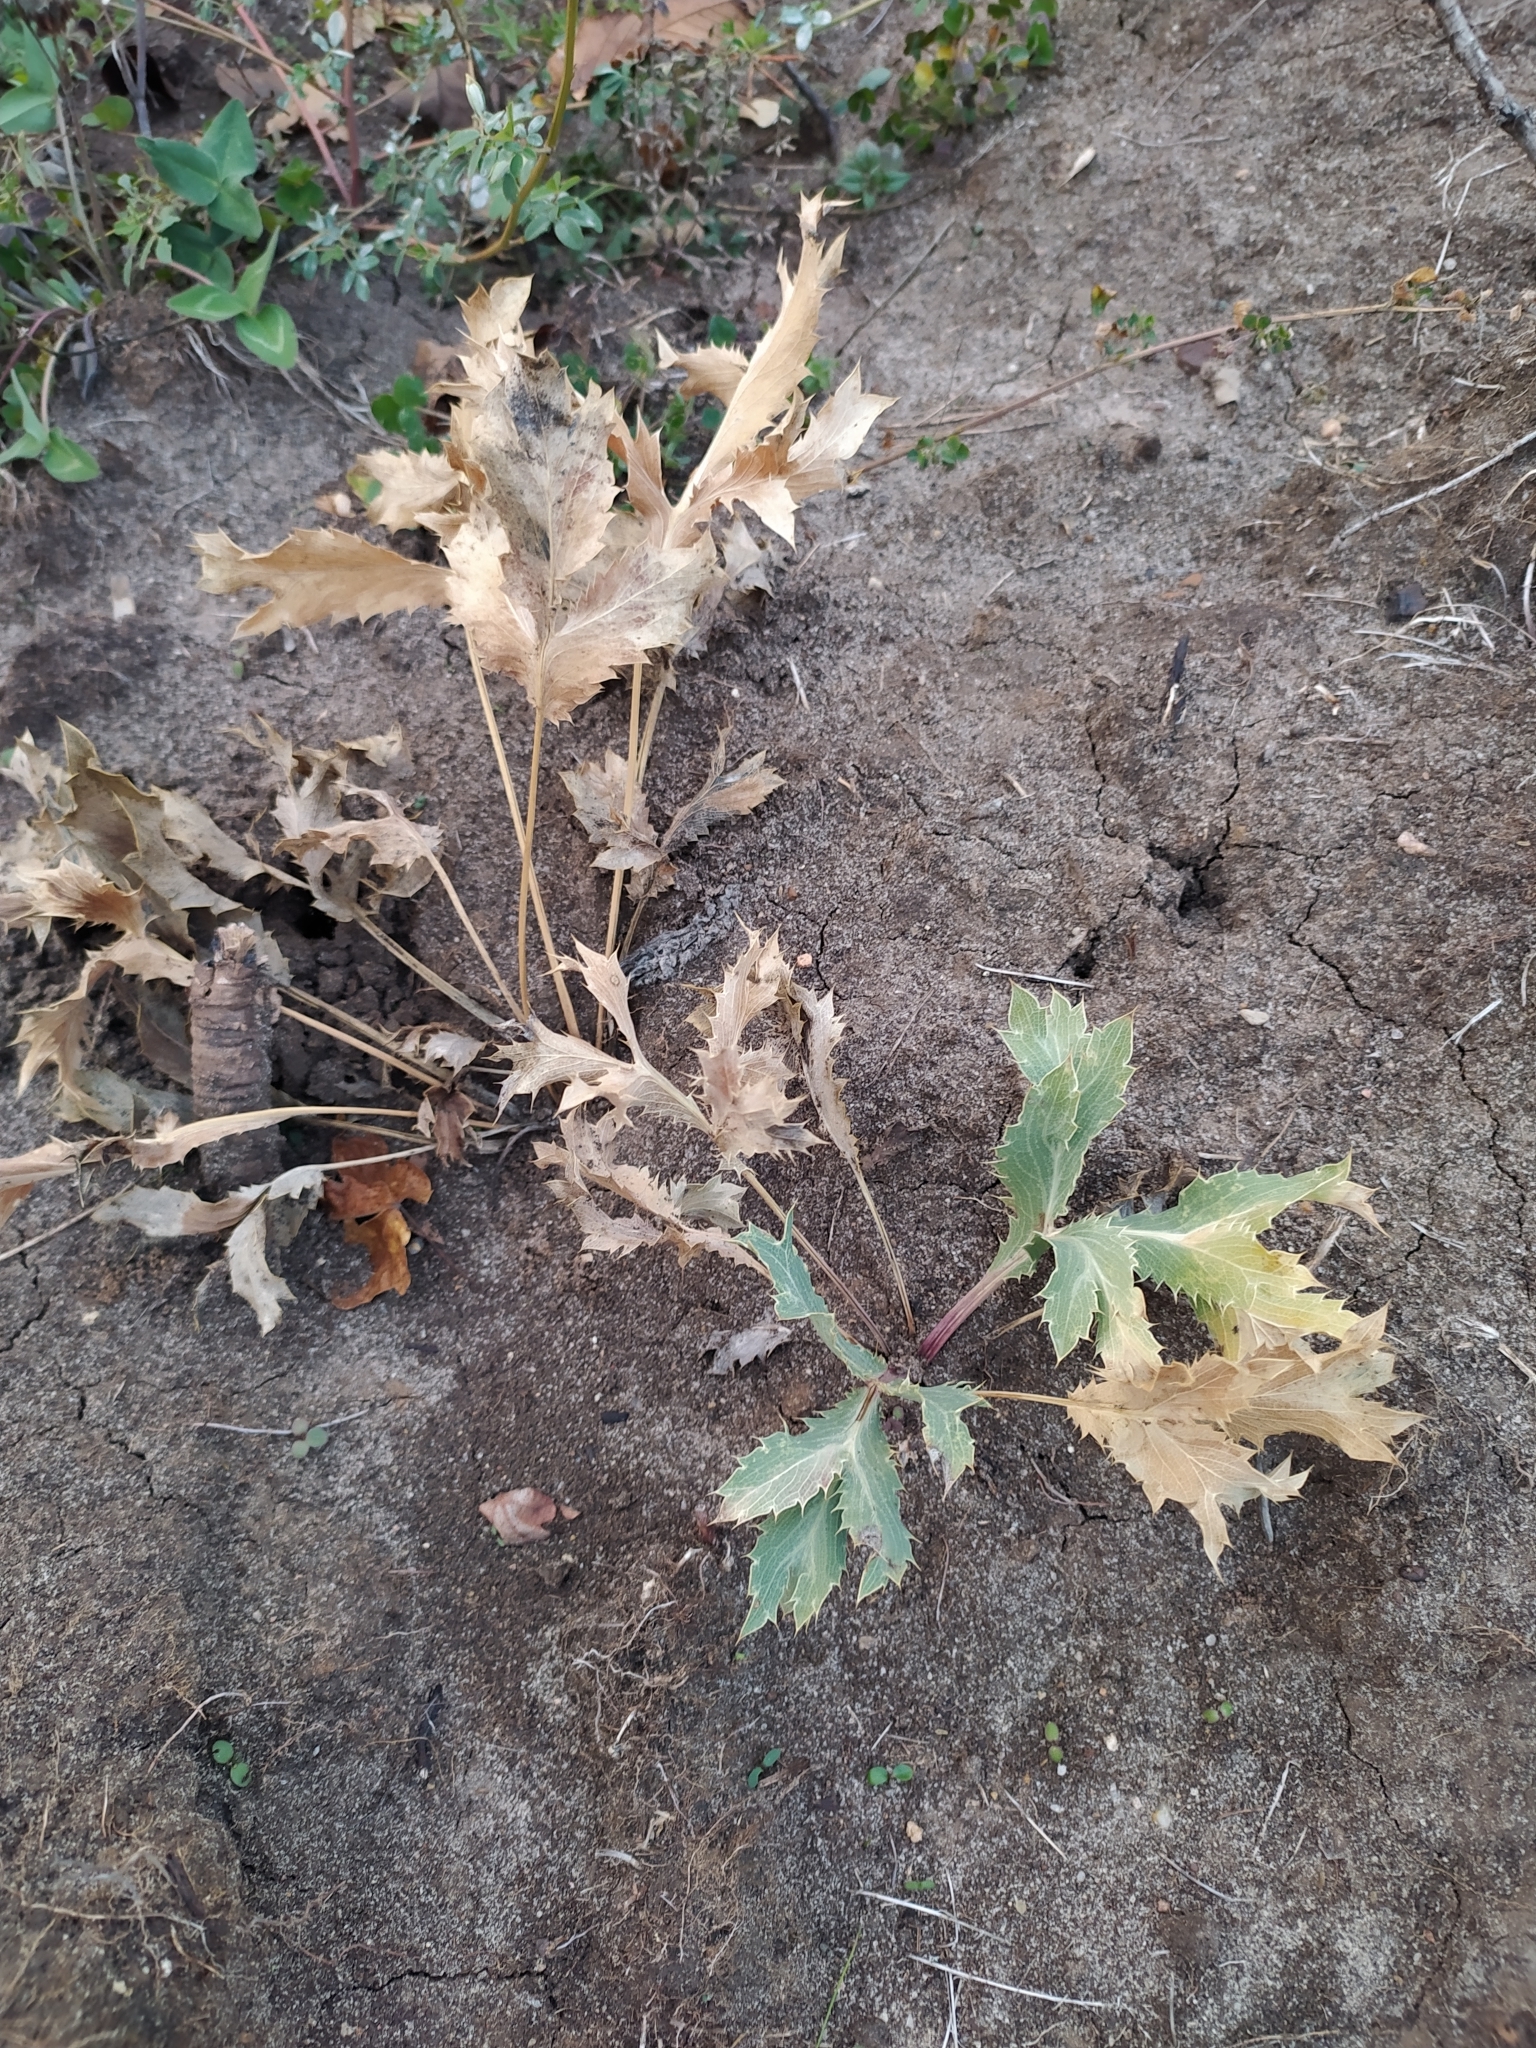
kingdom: Plantae
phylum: Tracheophyta
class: Magnoliopsida
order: Apiales
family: Apiaceae
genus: Eryngium
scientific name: Eryngium campestre
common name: Field eryngo
